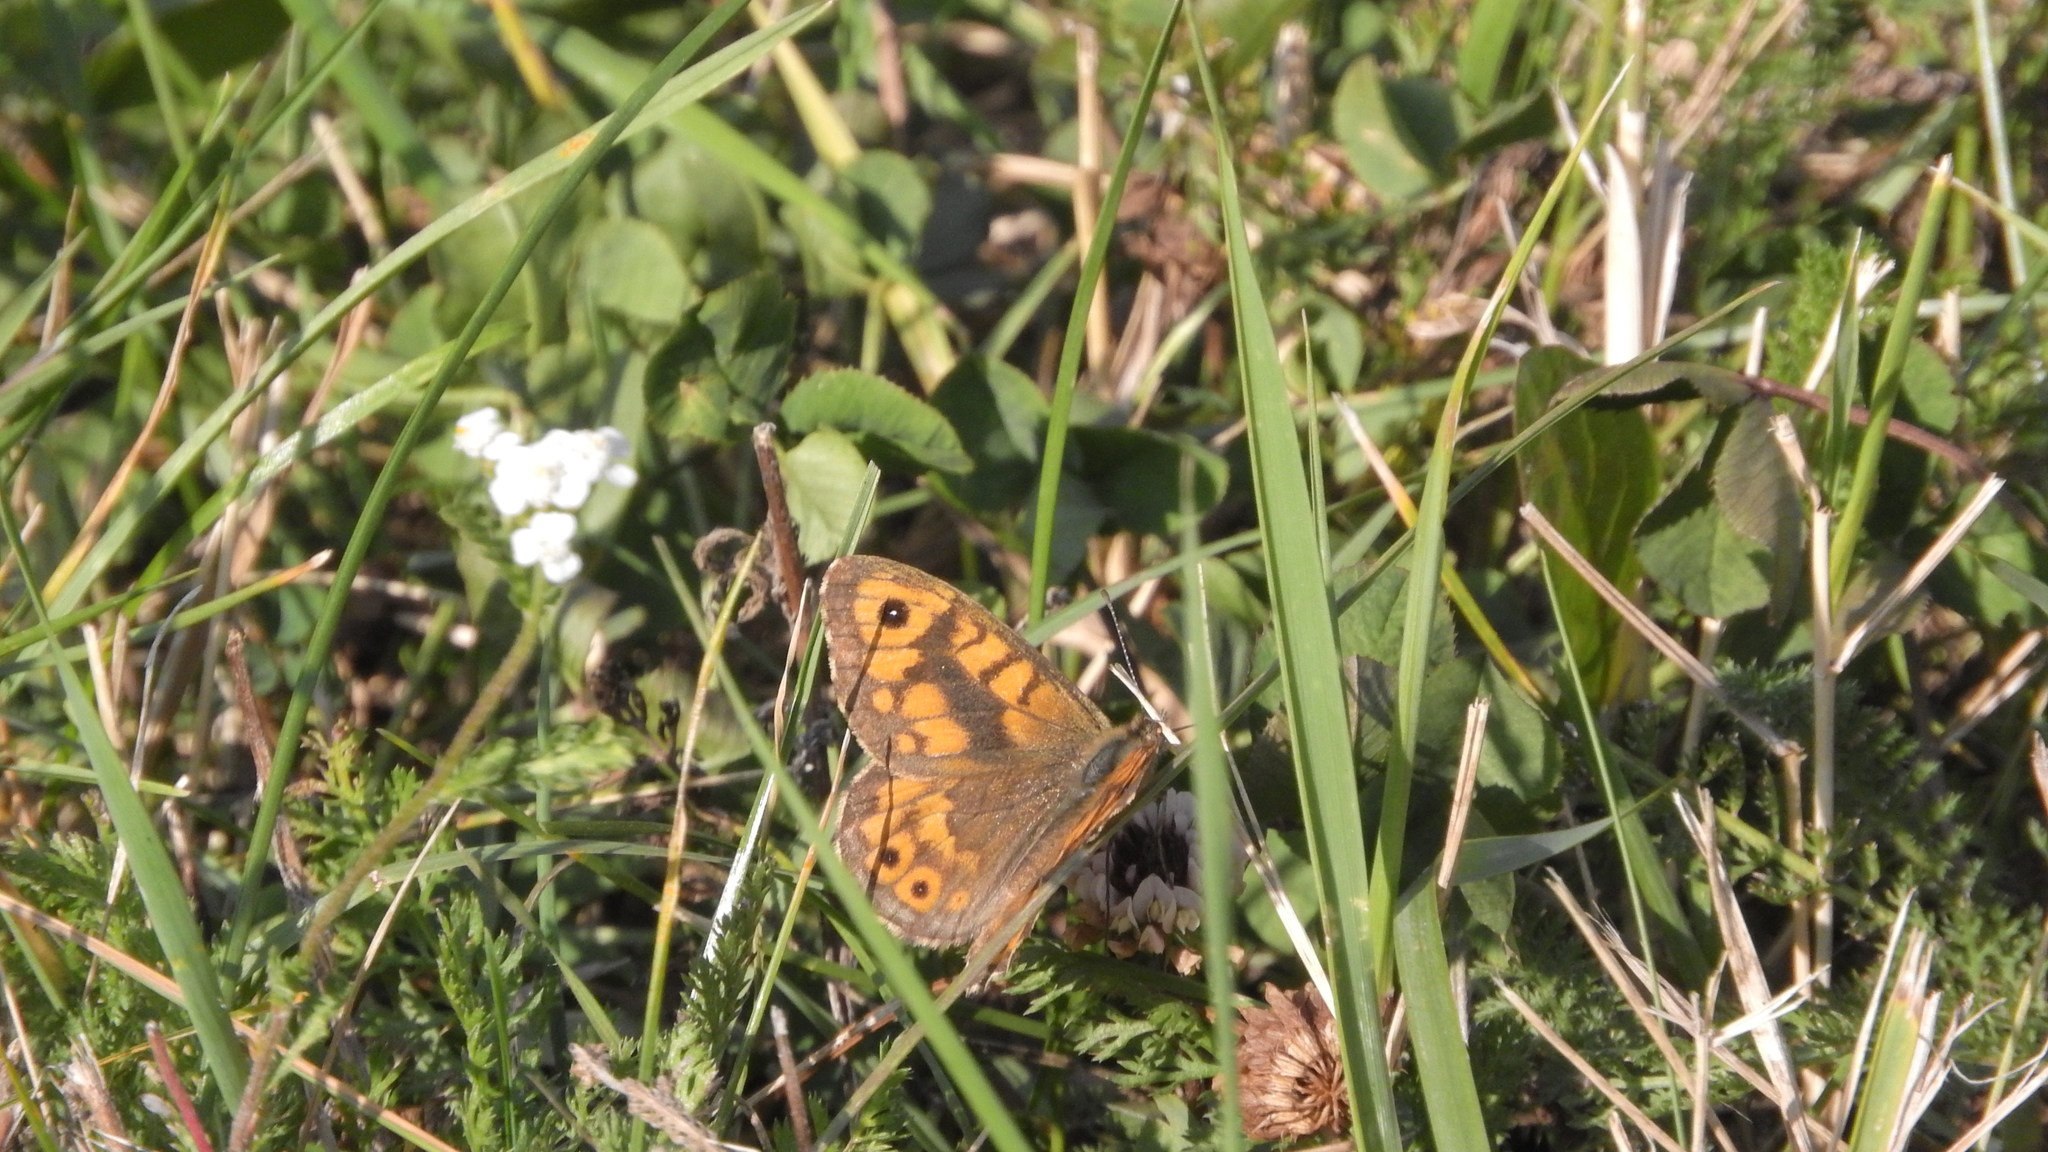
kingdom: Animalia
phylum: Arthropoda
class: Insecta
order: Lepidoptera
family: Nymphalidae
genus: Pararge
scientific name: Pararge Lasiommata megera
